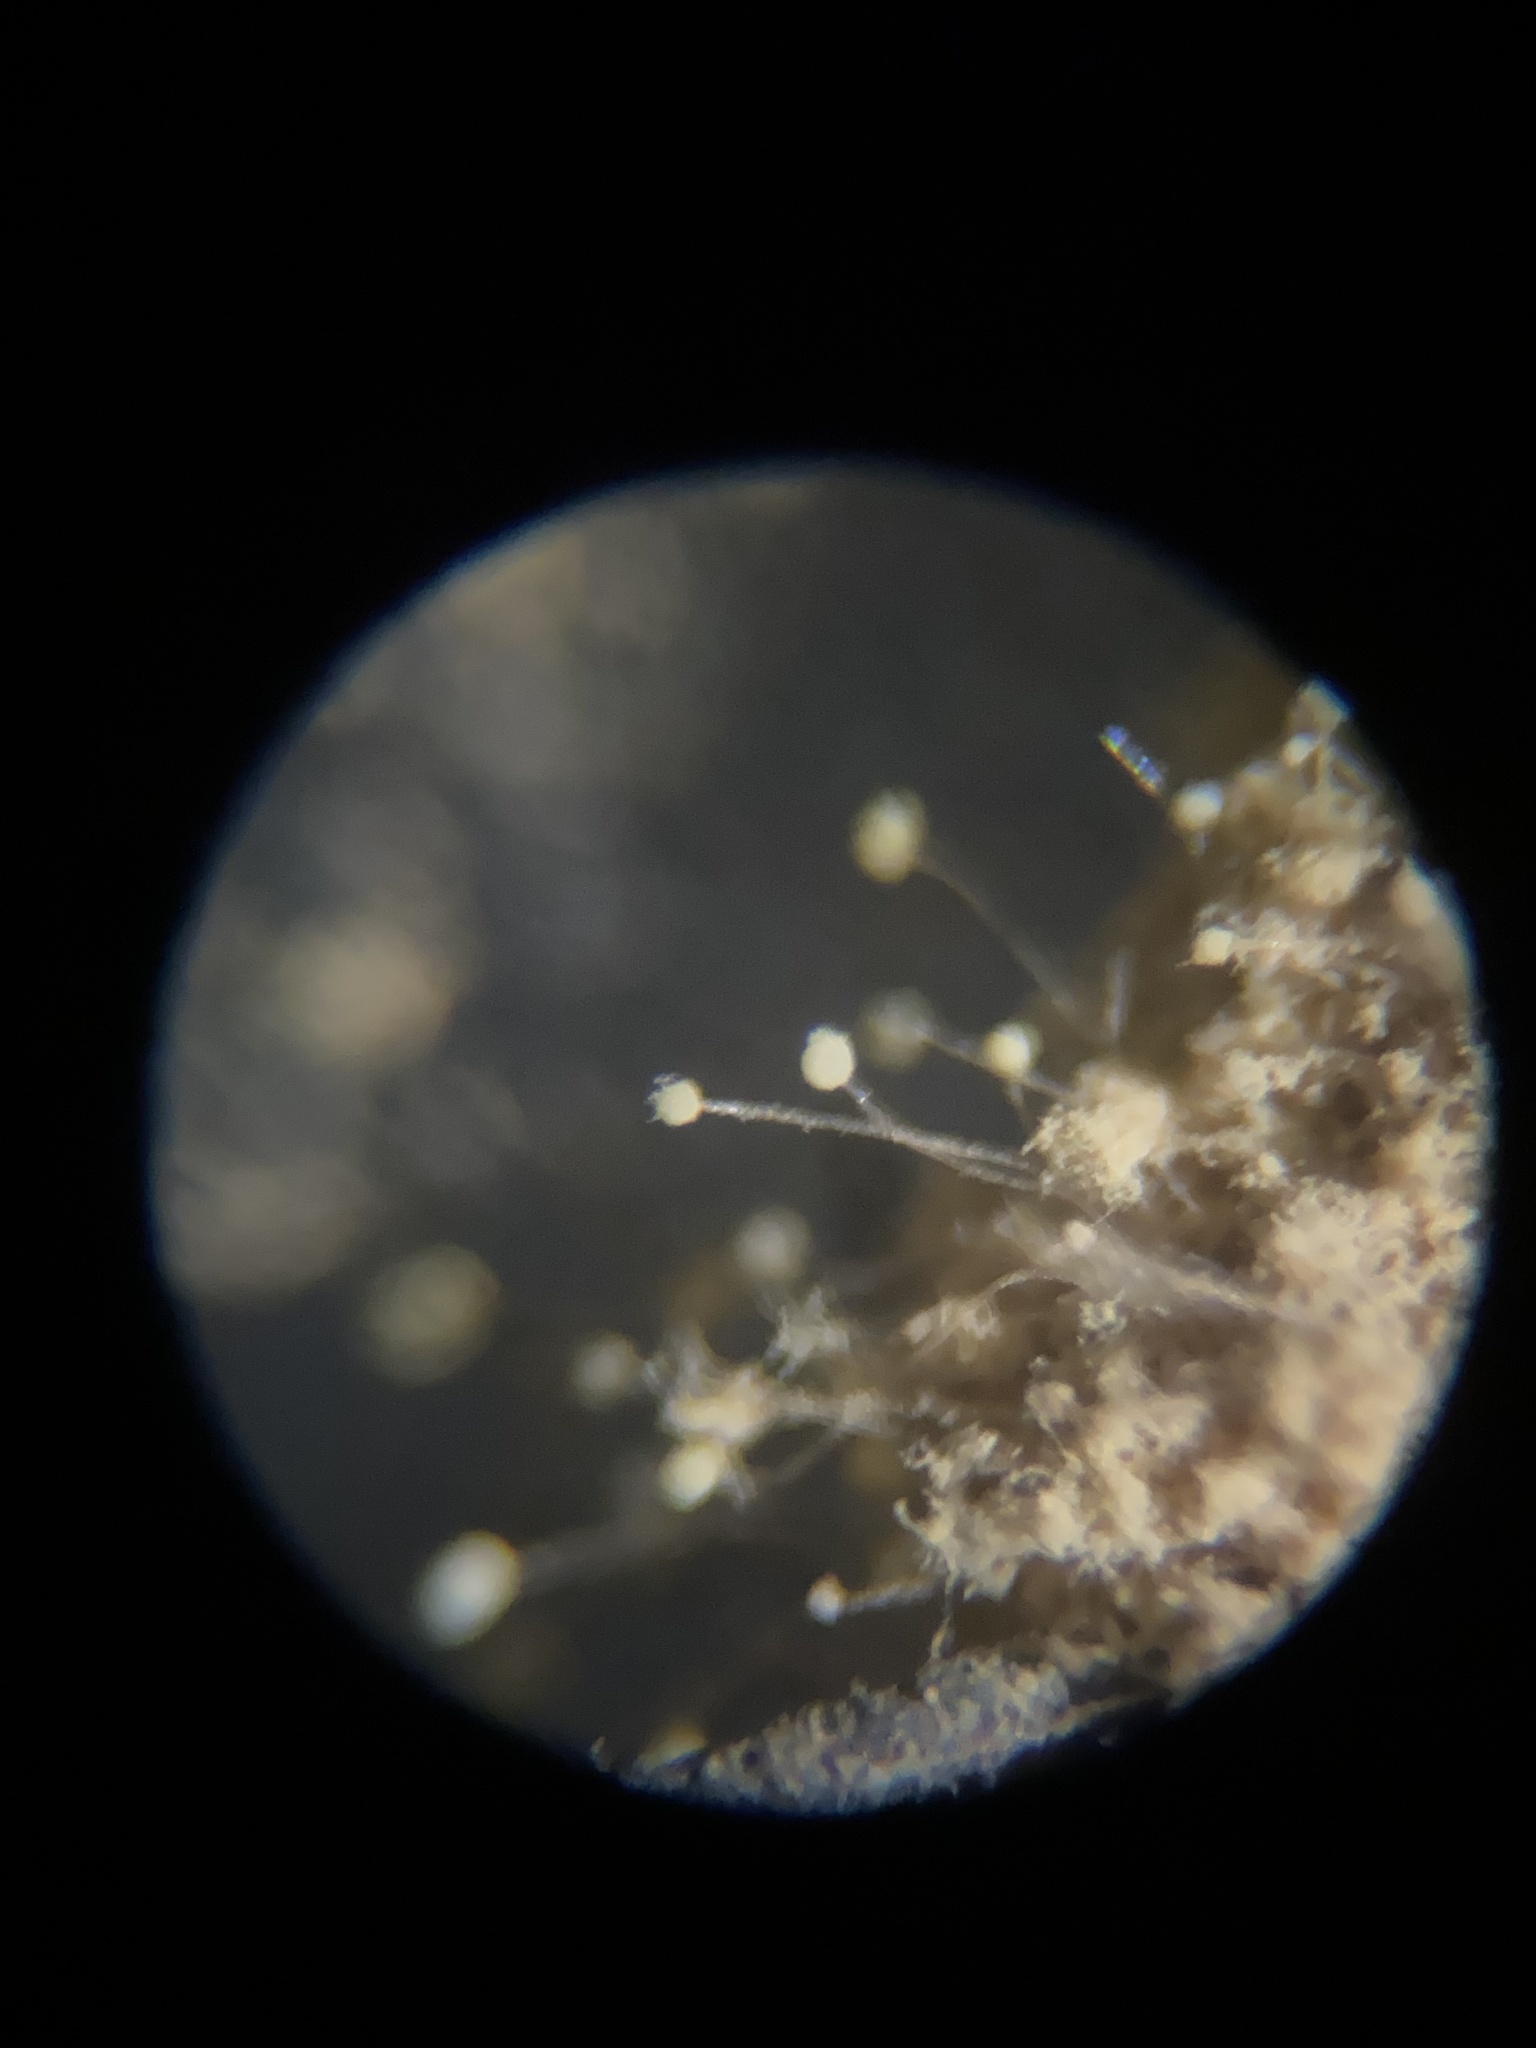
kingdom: Fungi
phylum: Ascomycota
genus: Amblyosporium
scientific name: Amblyosporium spongiosum
